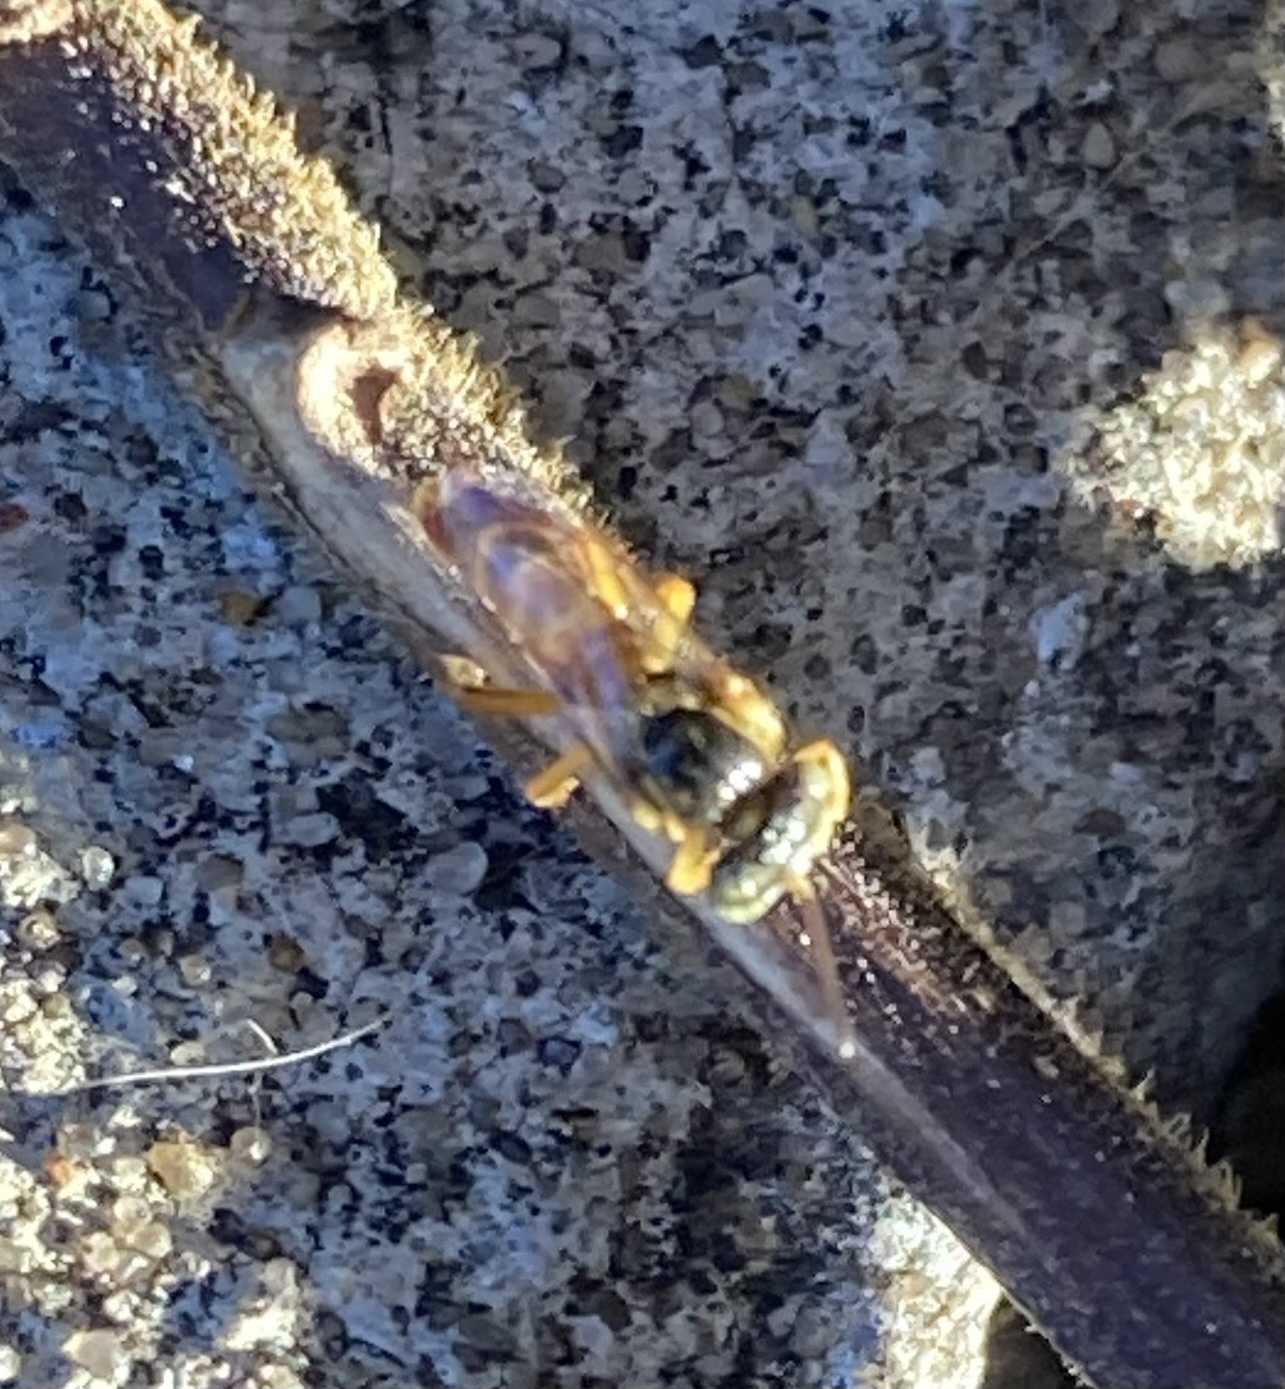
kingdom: Animalia
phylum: Arthropoda
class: Insecta
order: Hymenoptera
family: Apidae
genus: Tetragonisca
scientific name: Tetragonisca fiebrigi
